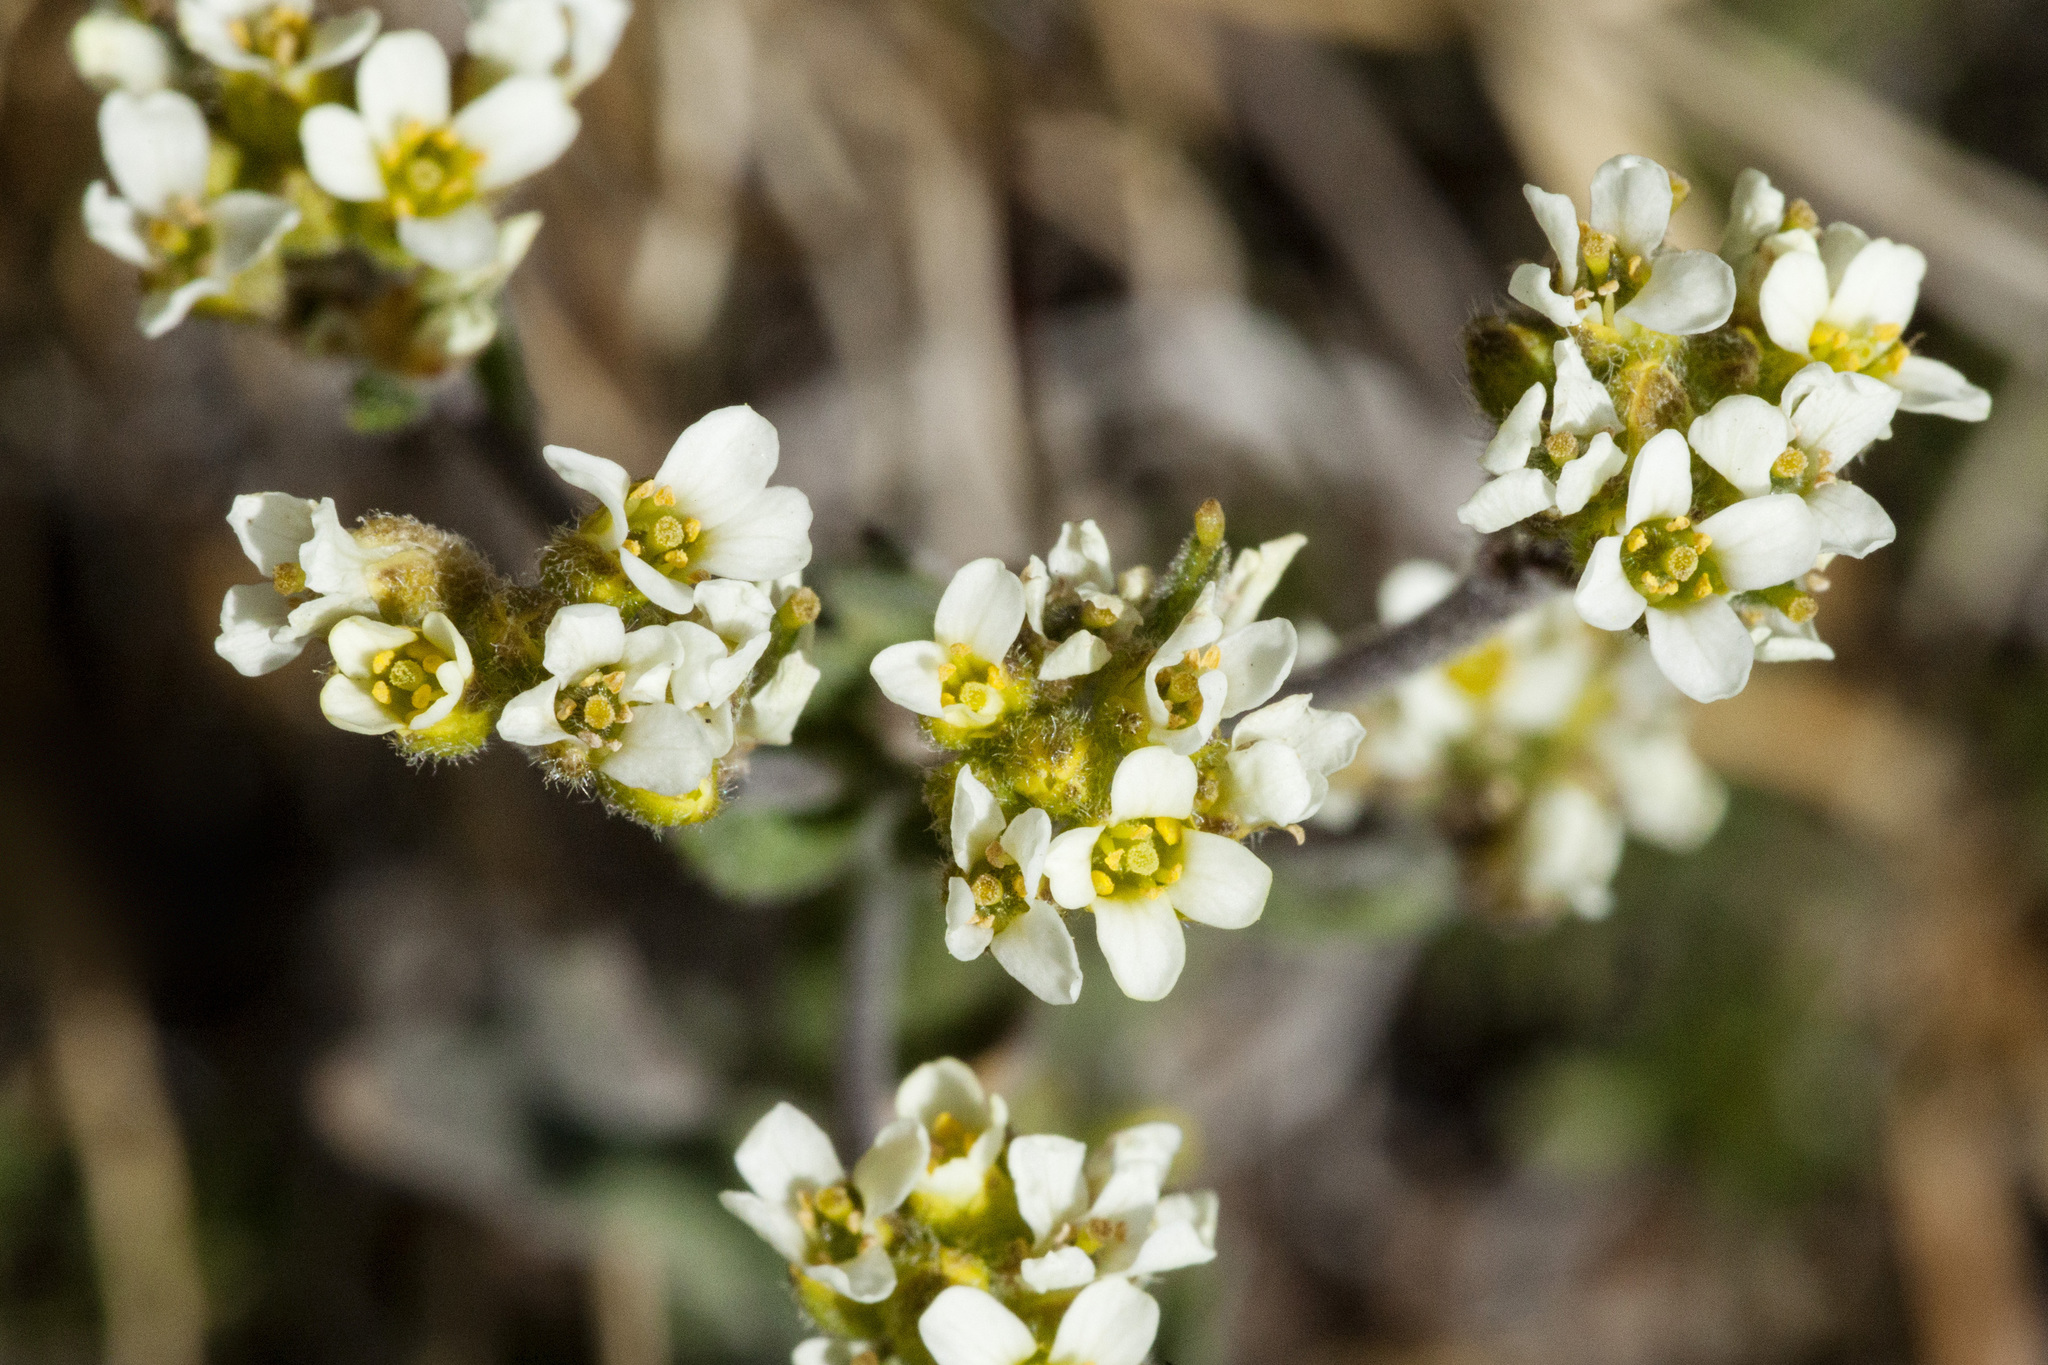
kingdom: Plantae
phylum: Tracheophyta
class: Magnoliopsida
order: Brassicales
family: Brassicaceae
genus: Draba
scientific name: Draba cana
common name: Hoary draba
